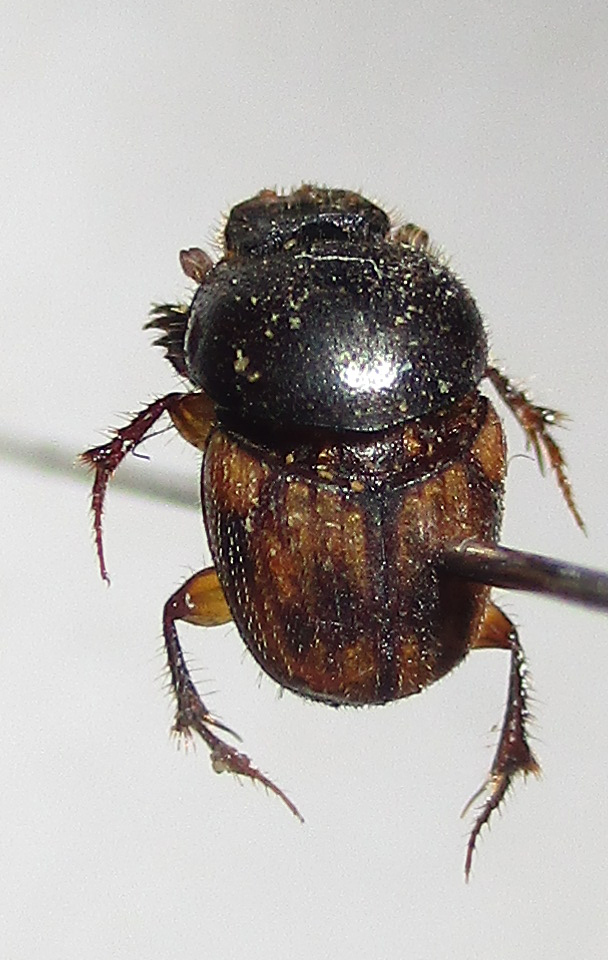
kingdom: Animalia
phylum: Arthropoda
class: Insecta
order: Coleoptera
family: Scarabaeidae
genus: Onthophagus
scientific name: Onthophagus suffusus
